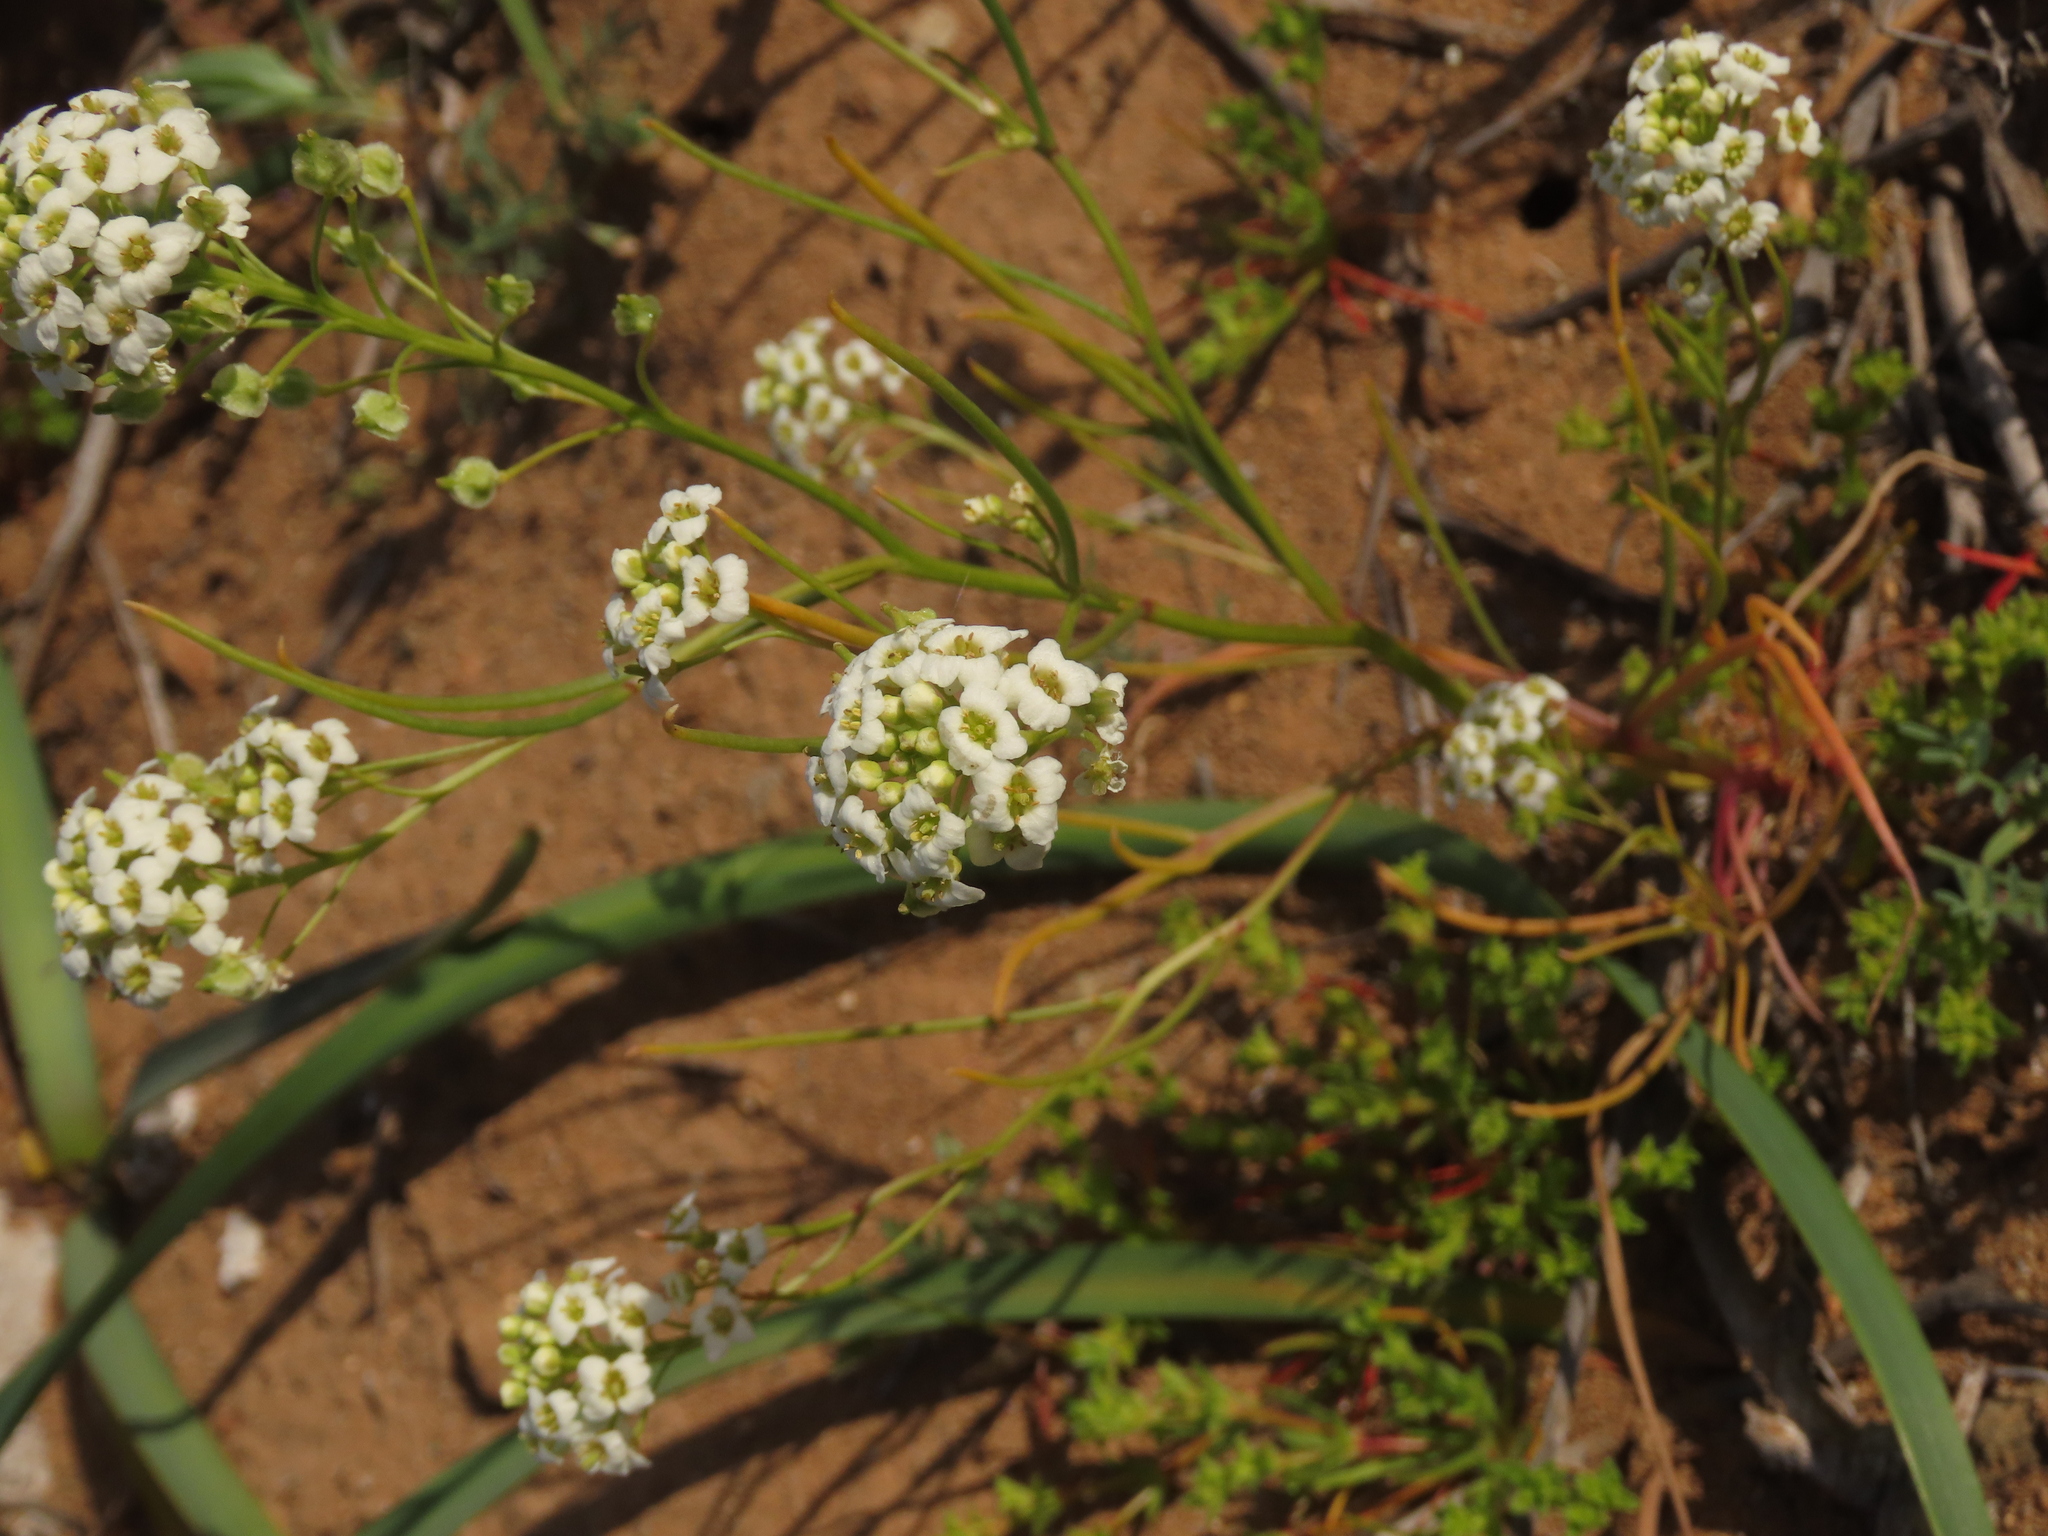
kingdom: Plantae
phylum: Tracheophyta
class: Magnoliopsida
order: Brassicales
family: Brassicaceae
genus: Menonvillea
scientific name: Menonvillea linearis
